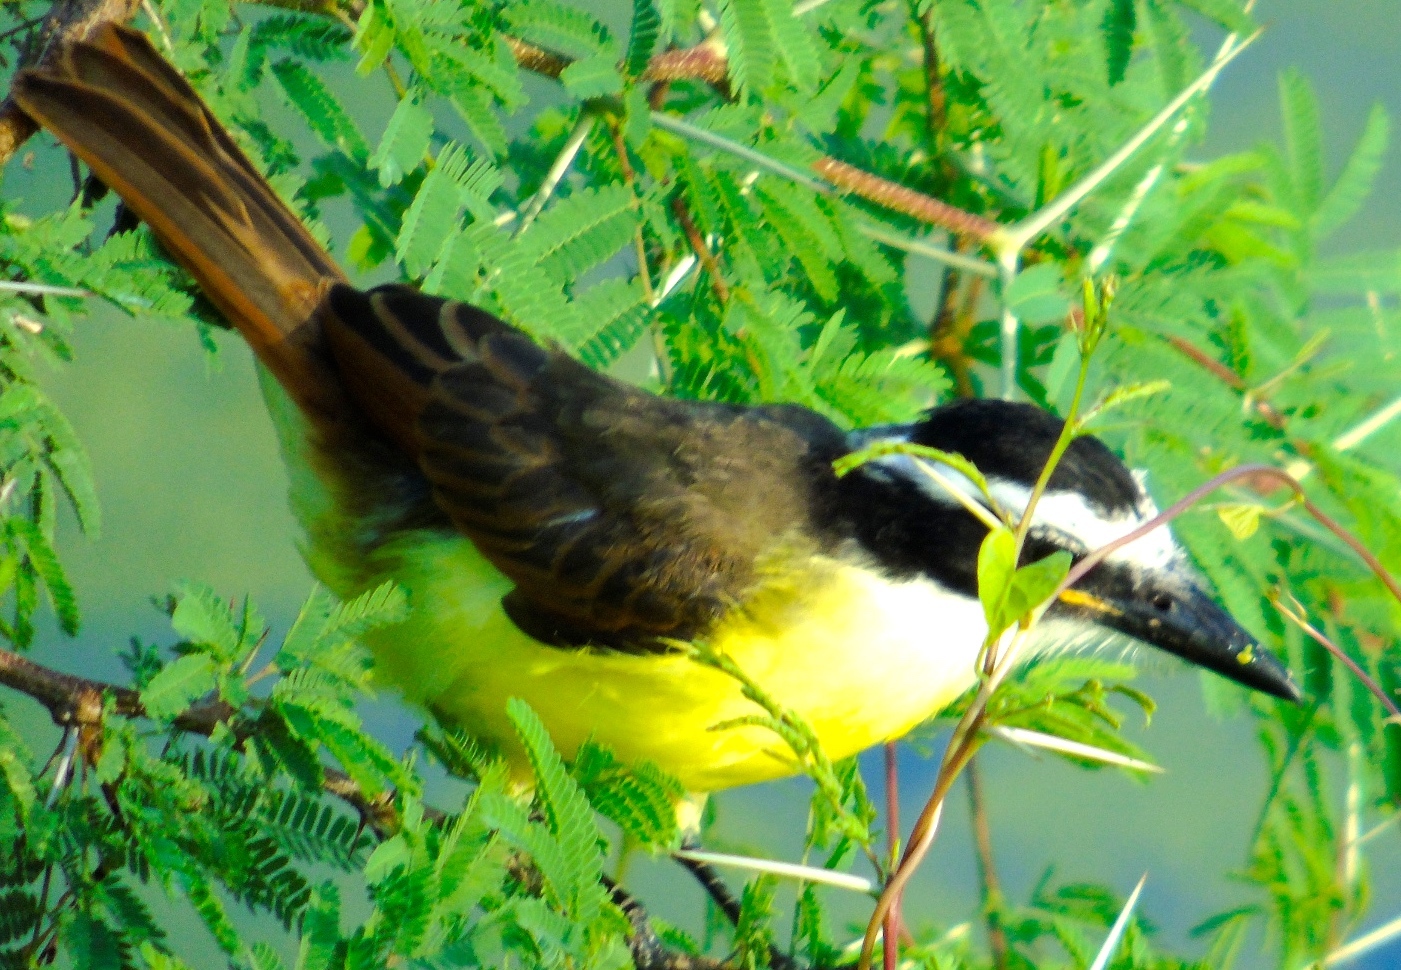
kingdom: Animalia
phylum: Chordata
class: Aves
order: Passeriformes
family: Tyrannidae
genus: Pitangus
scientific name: Pitangus sulphuratus
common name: Great kiskadee
